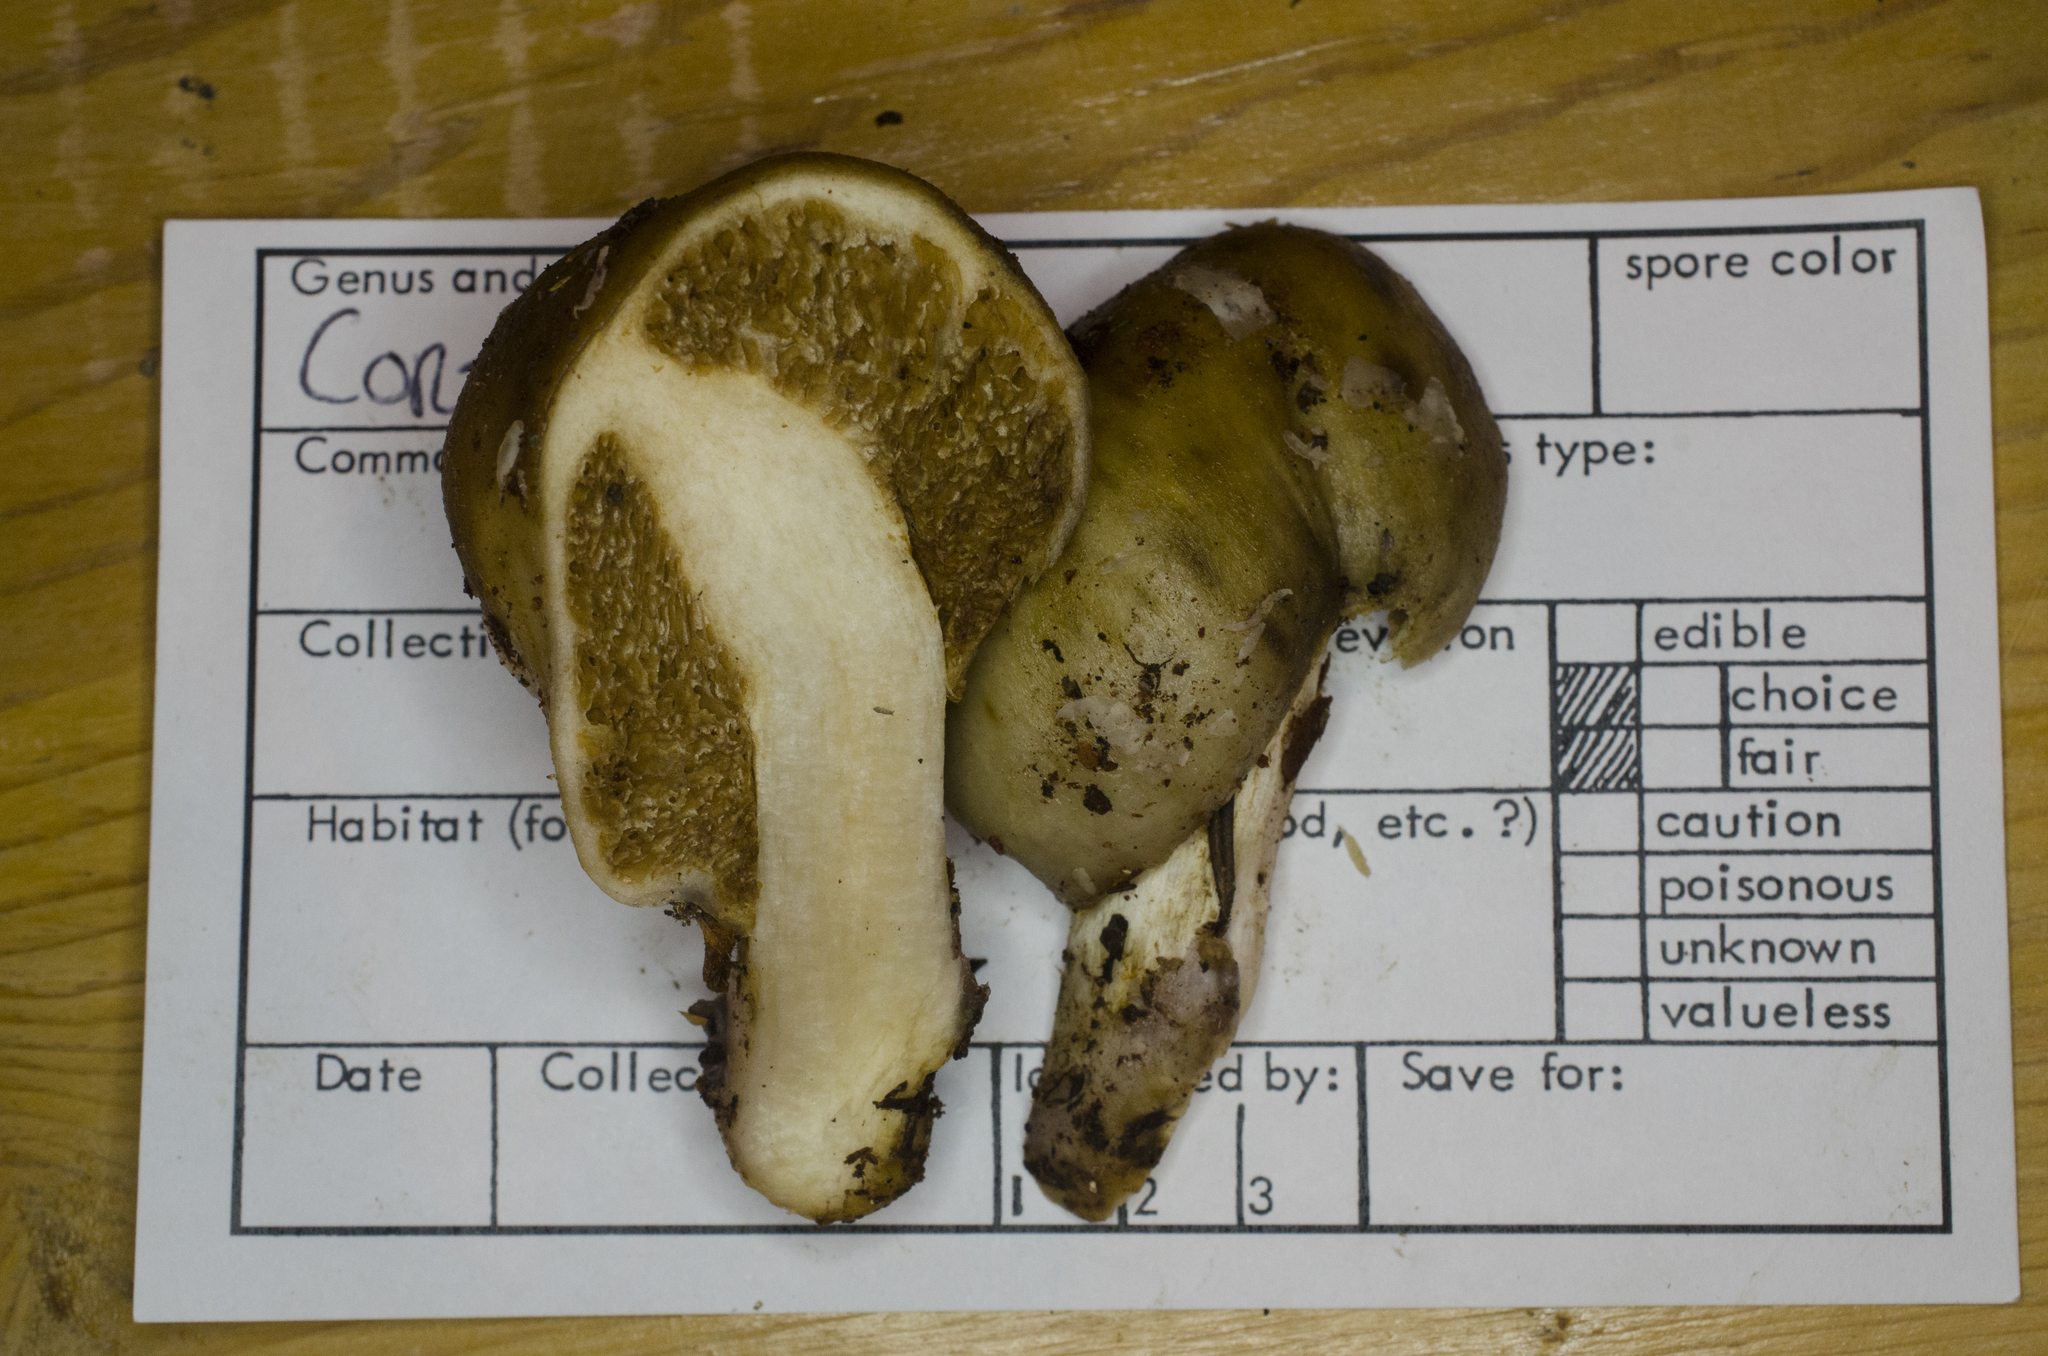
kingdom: Fungi
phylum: Basidiomycota
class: Agaricomycetes
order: Agaricales
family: Cortinariaceae
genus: Cortinarius
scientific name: Cortinarius pinguis
